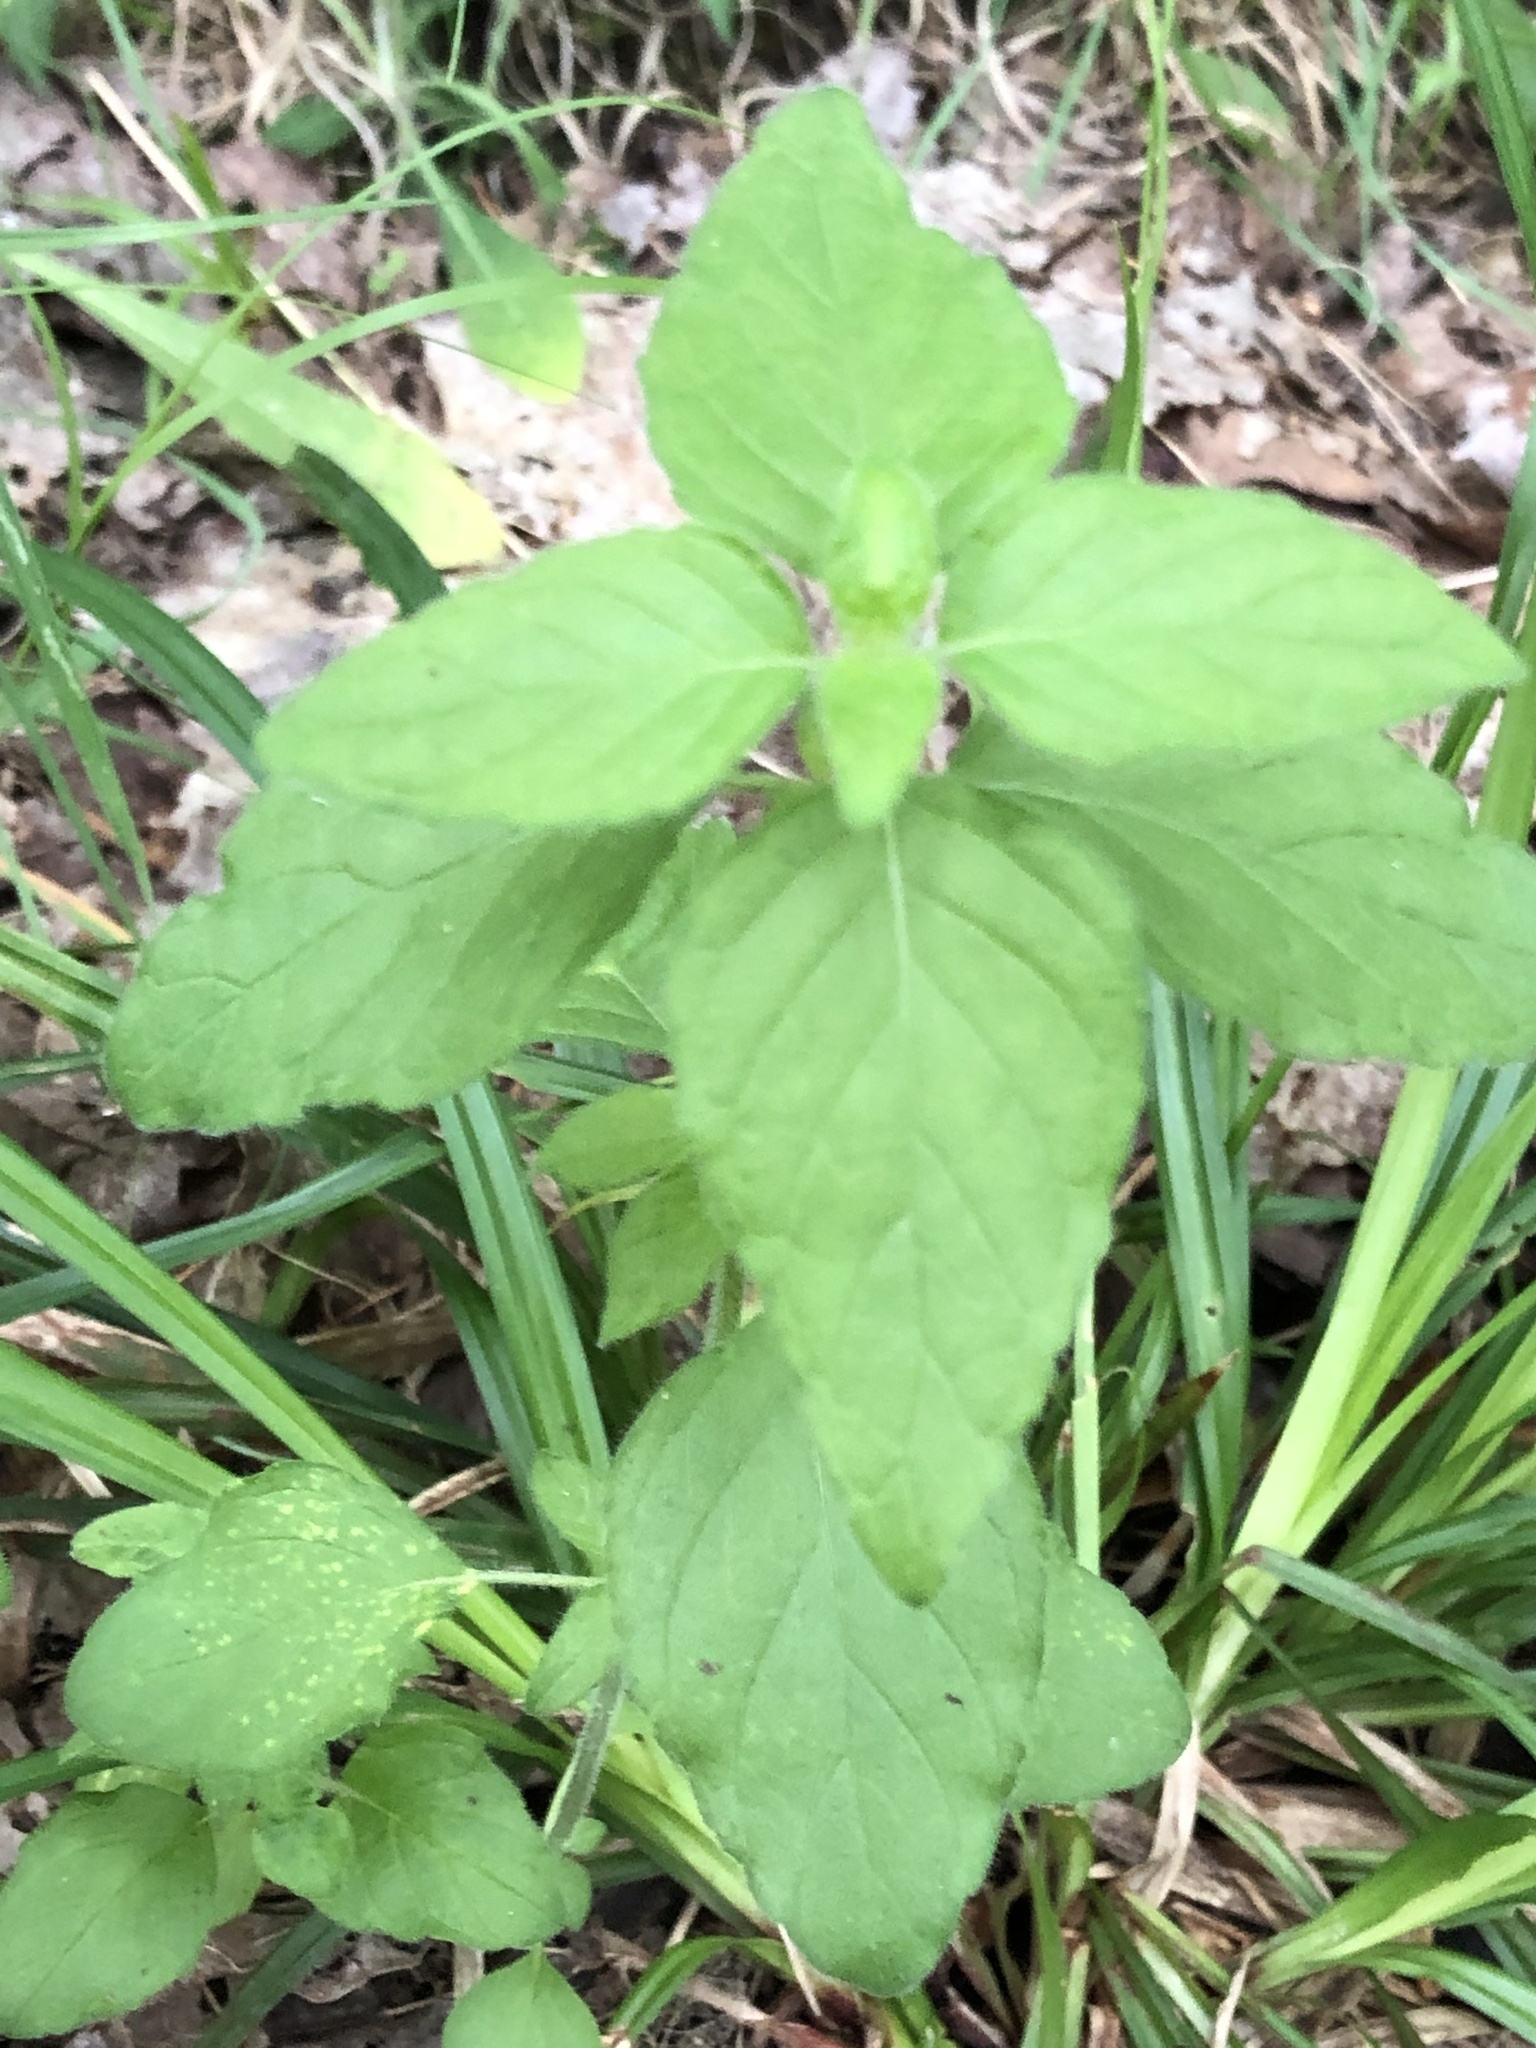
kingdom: Plantae
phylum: Tracheophyta
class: Magnoliopsida
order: Lamiales
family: Lamiaceae
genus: Clinopodium
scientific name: Clinopodium vulgare
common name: Wild basil
